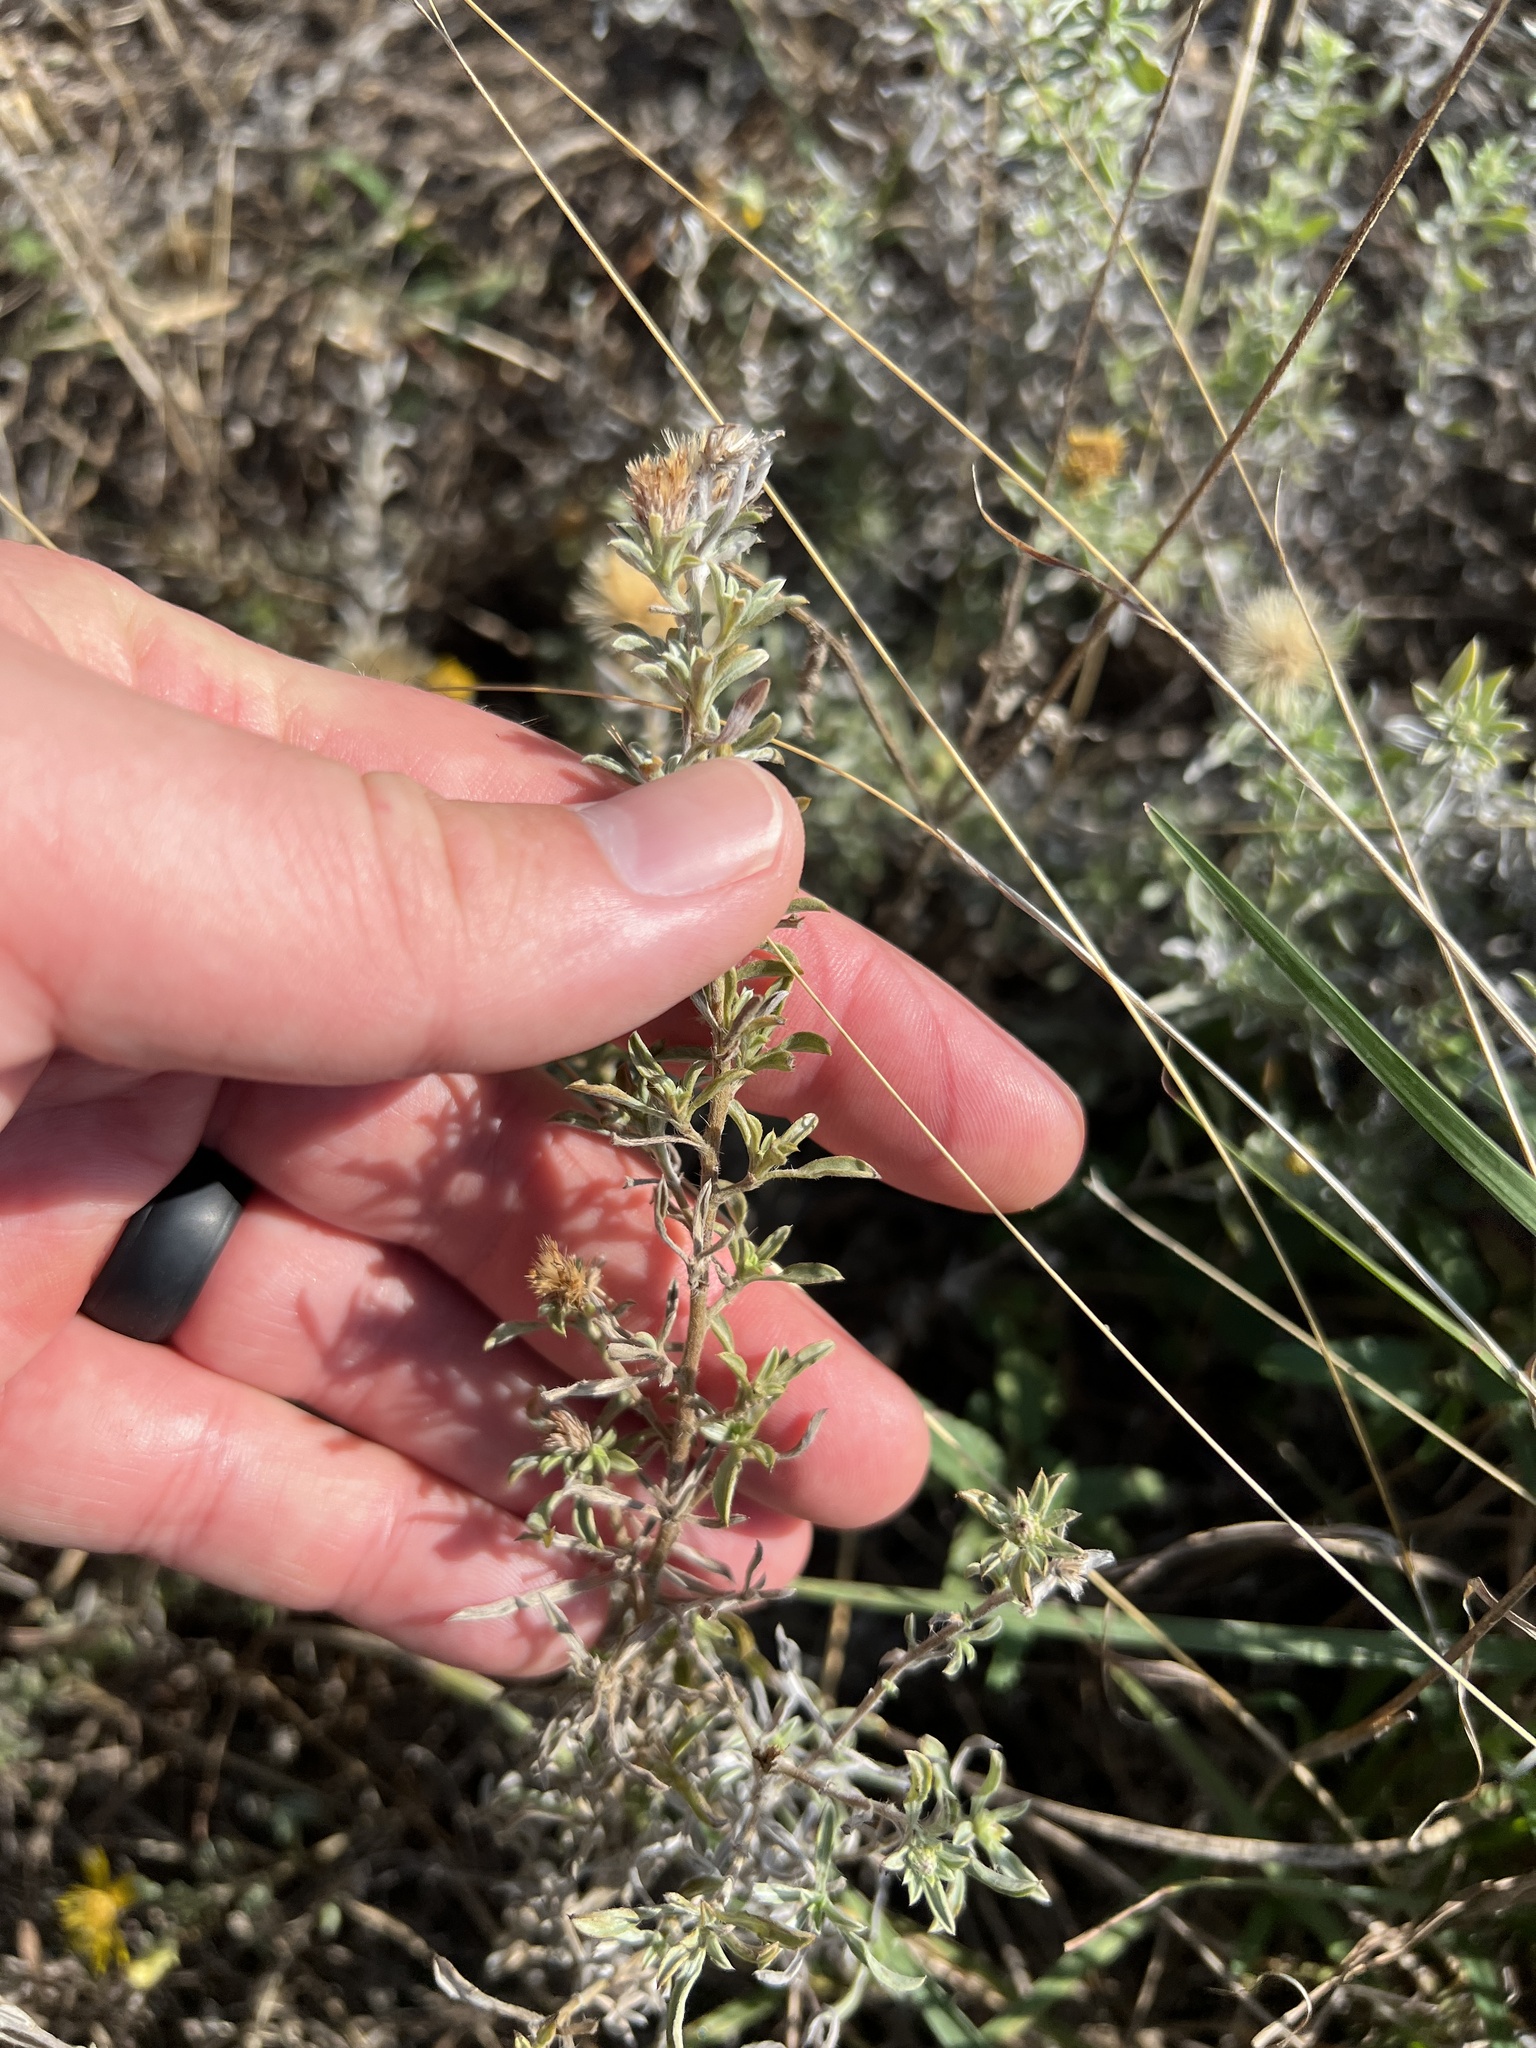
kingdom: Plantae
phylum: Tracheophyta
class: Magnoliopsida
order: Asterales
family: Asteraceae
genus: Heterotheca
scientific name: Heterotheca canescens
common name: Hoary golden-aster
